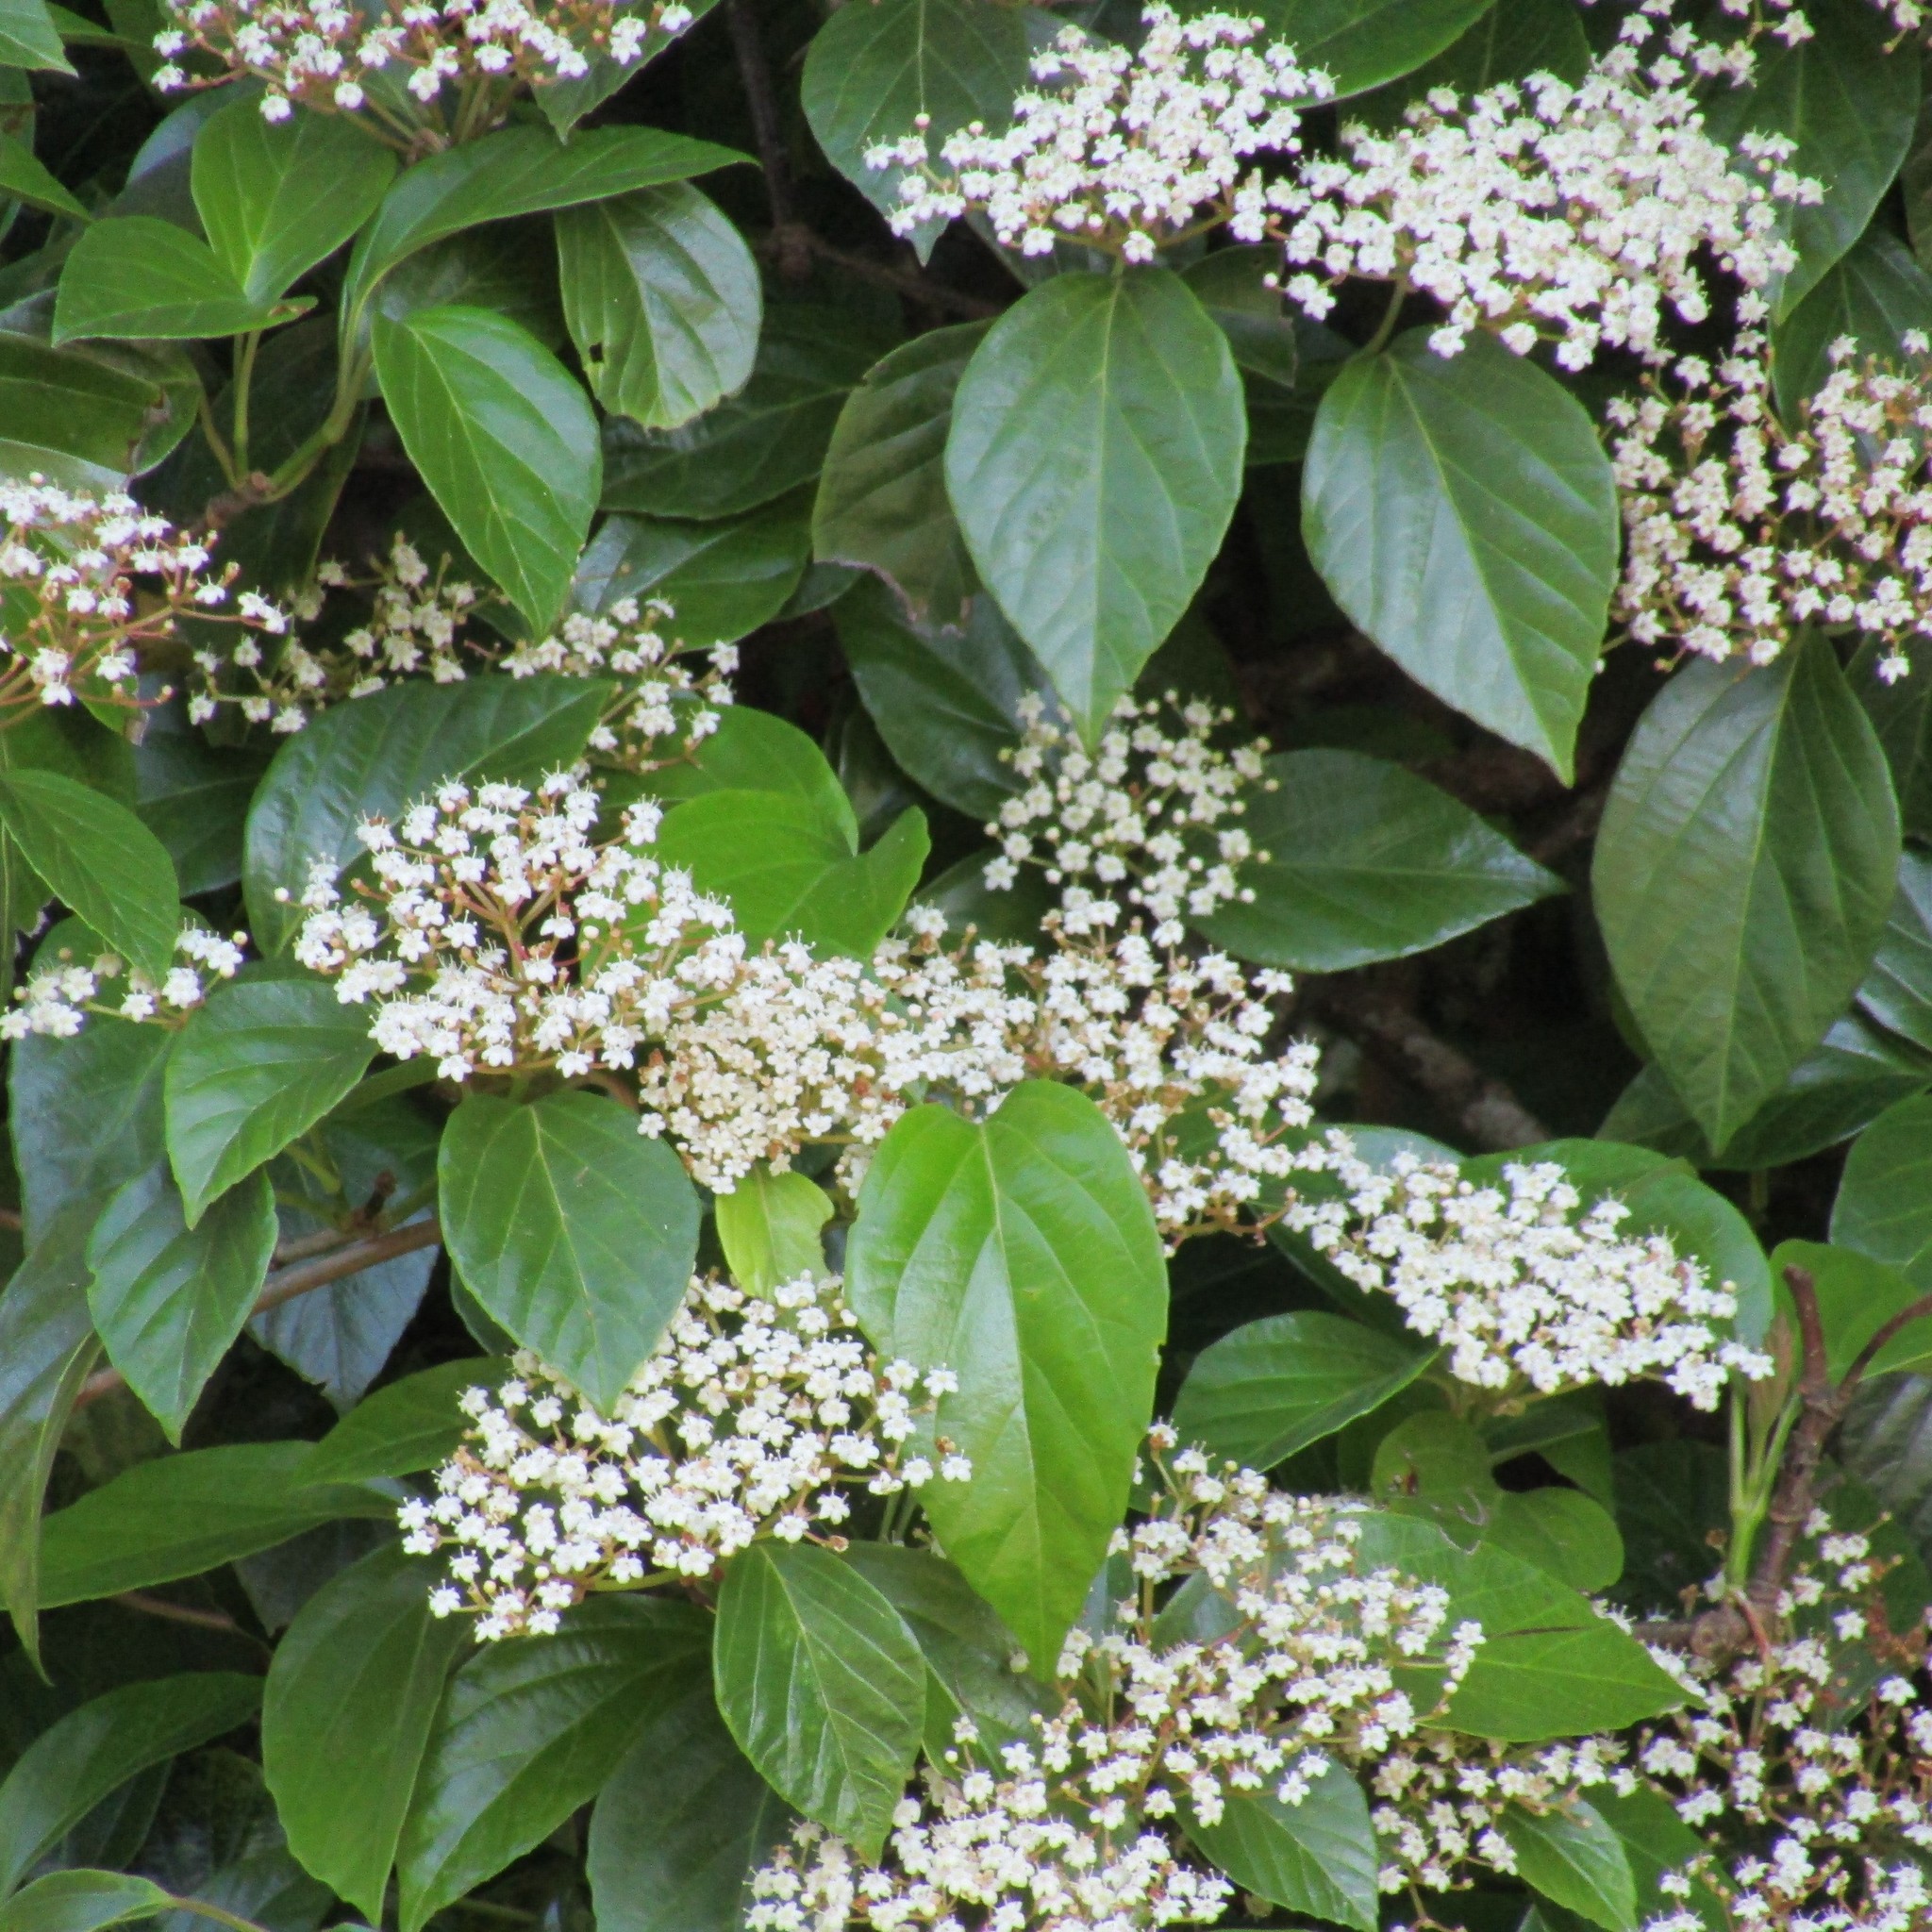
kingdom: Plantae
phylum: Tracheophyta
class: Magnoliopsida
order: Dipsacales
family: Viburnaceae
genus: Viburnum
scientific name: Viburnum japonicum
